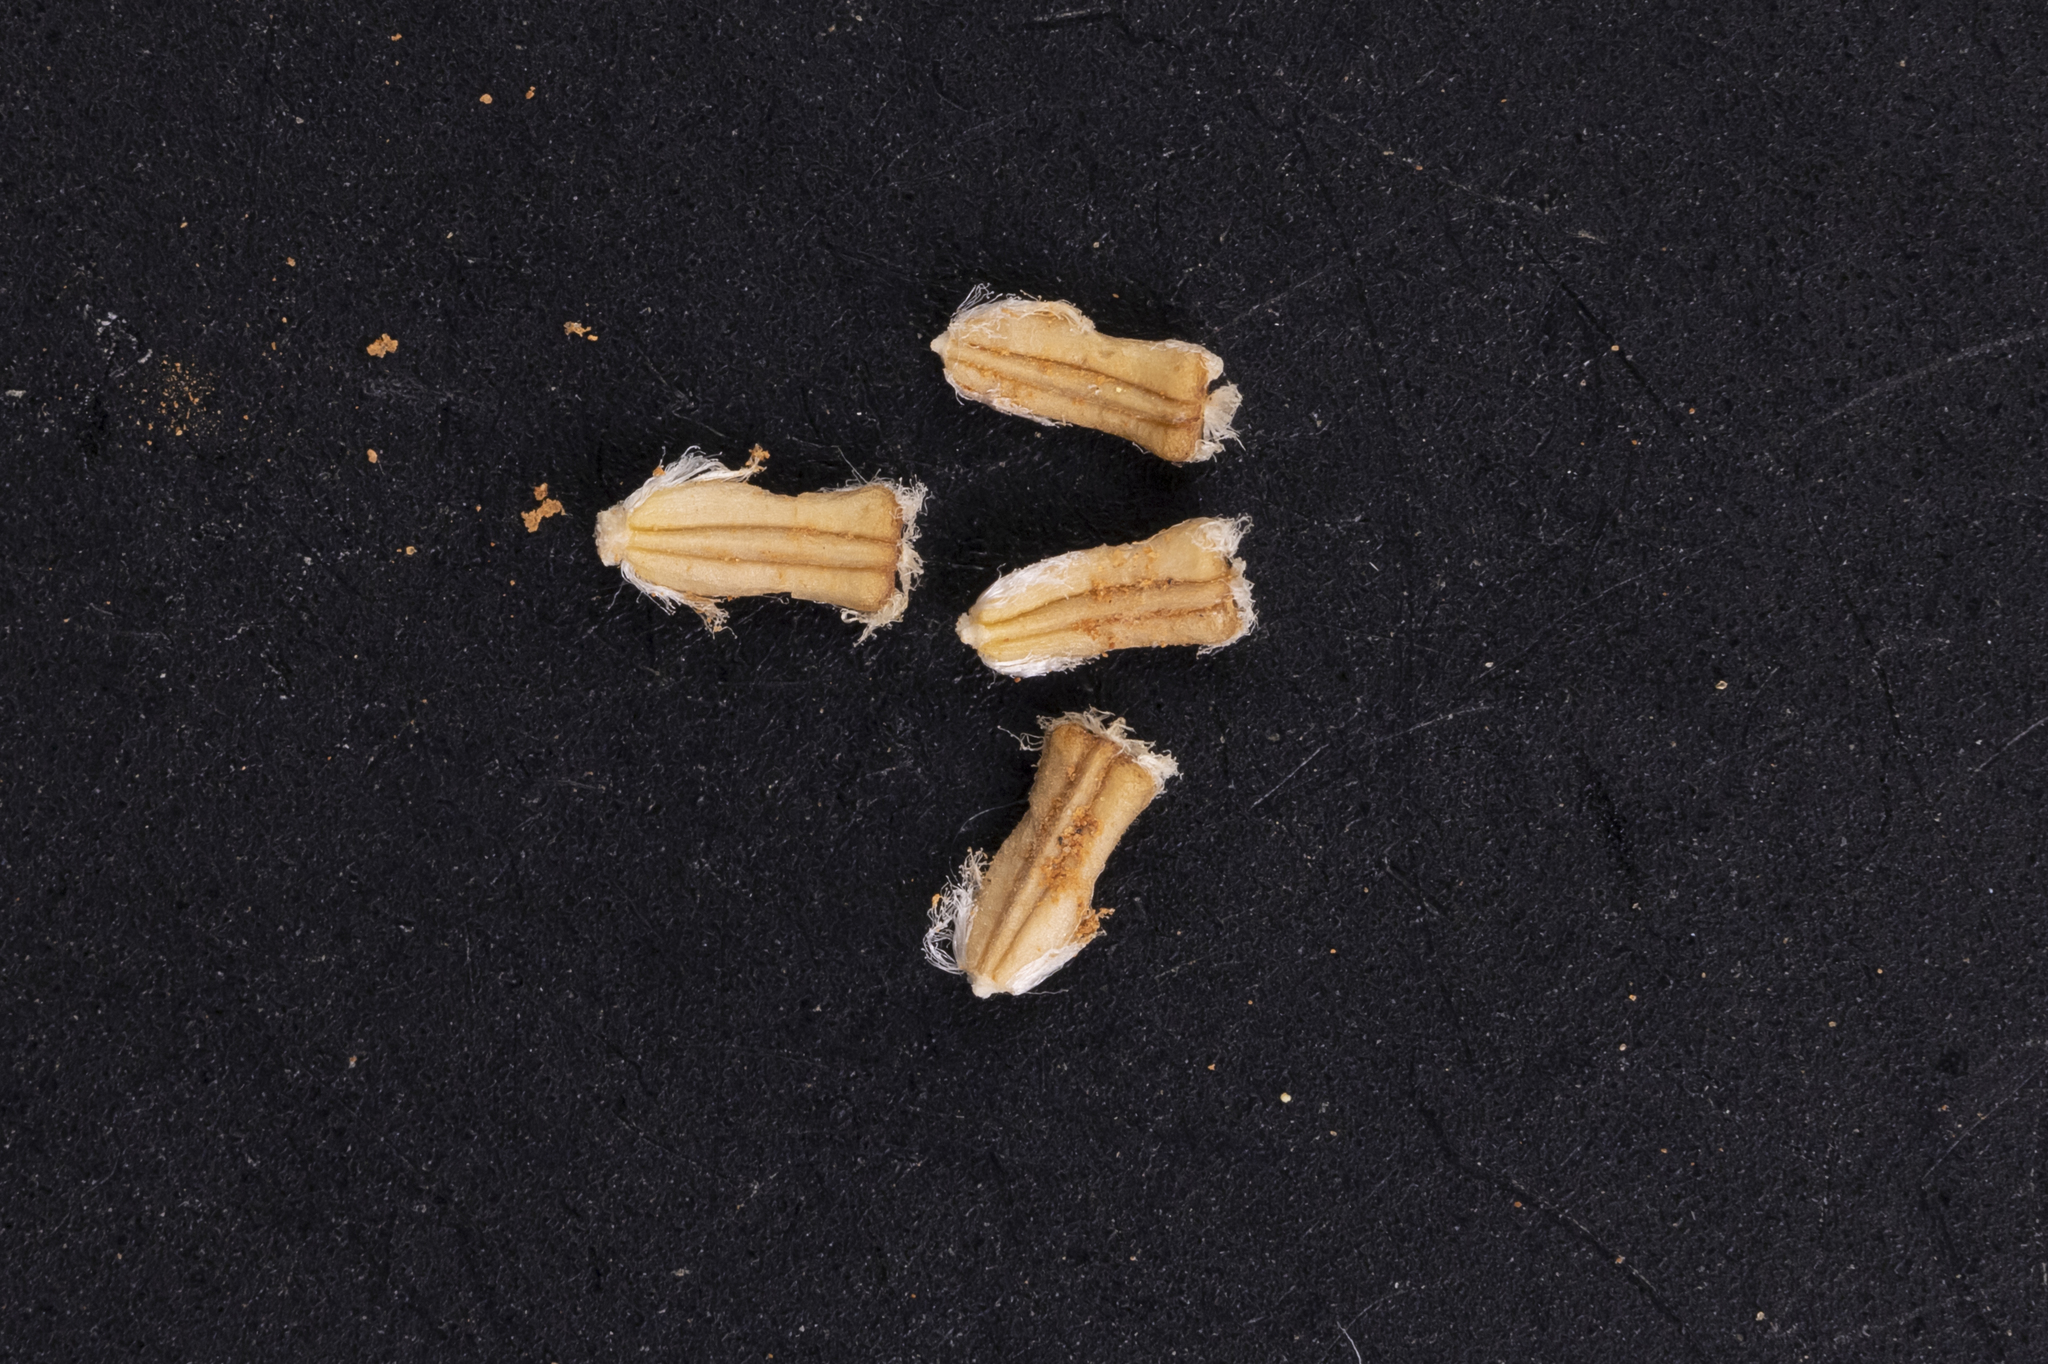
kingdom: Plantae
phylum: Tracheophyta
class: Magnoliopsida
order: Asterales
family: Asteraceae
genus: Brachyscome
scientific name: Brachyscome lineariloba
